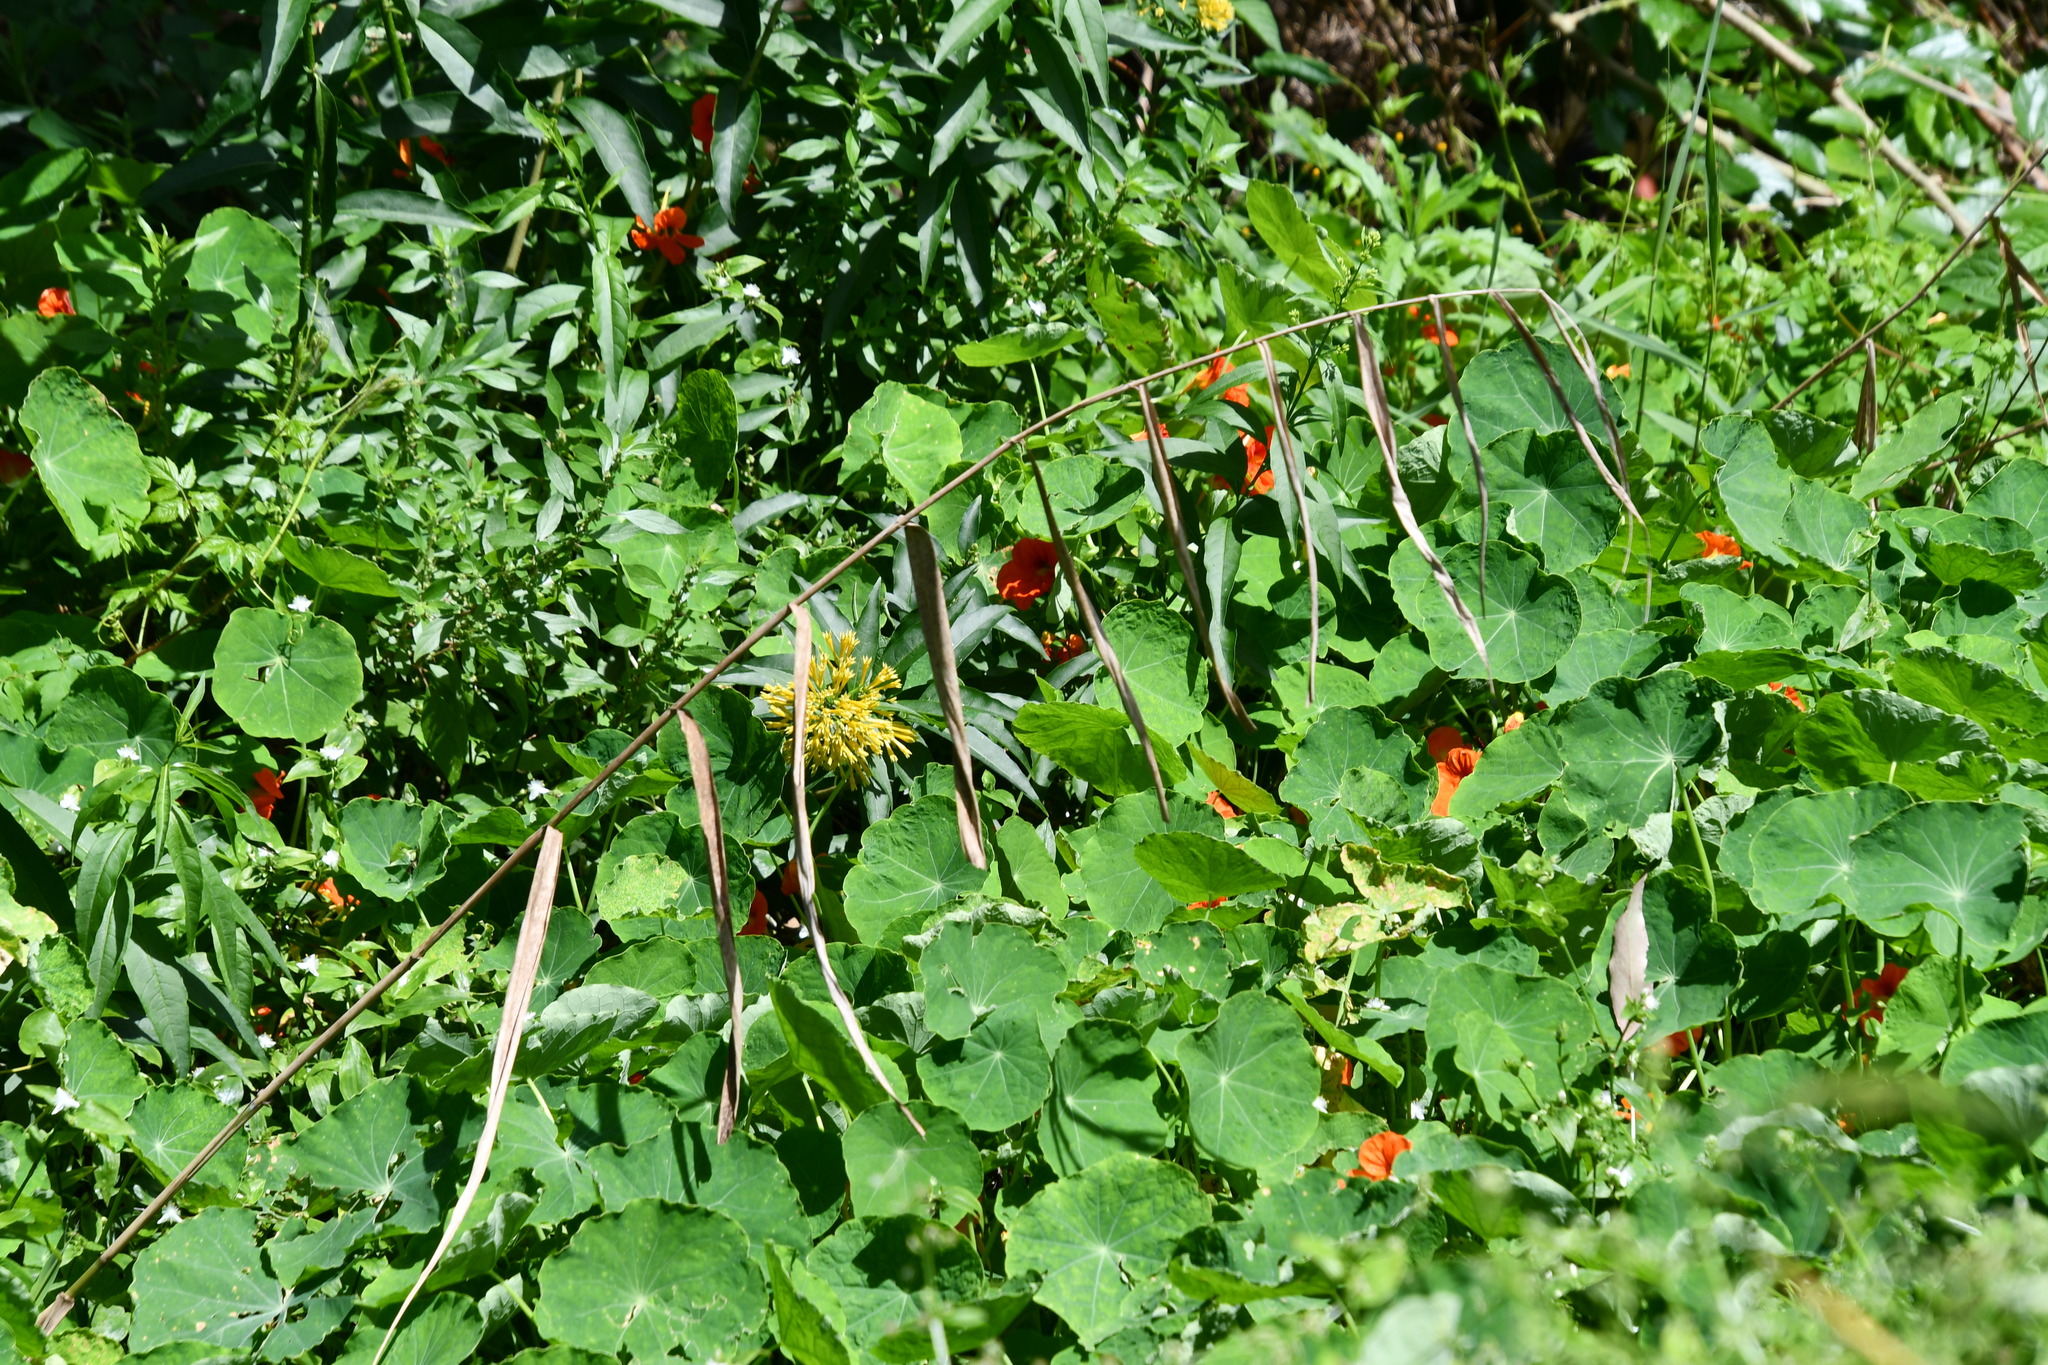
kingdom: Plantae
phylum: Tracheophyta
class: Liliopsida
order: Poales
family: Poaceae
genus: Phragmites
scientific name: Phragmites australis
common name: Common reed
